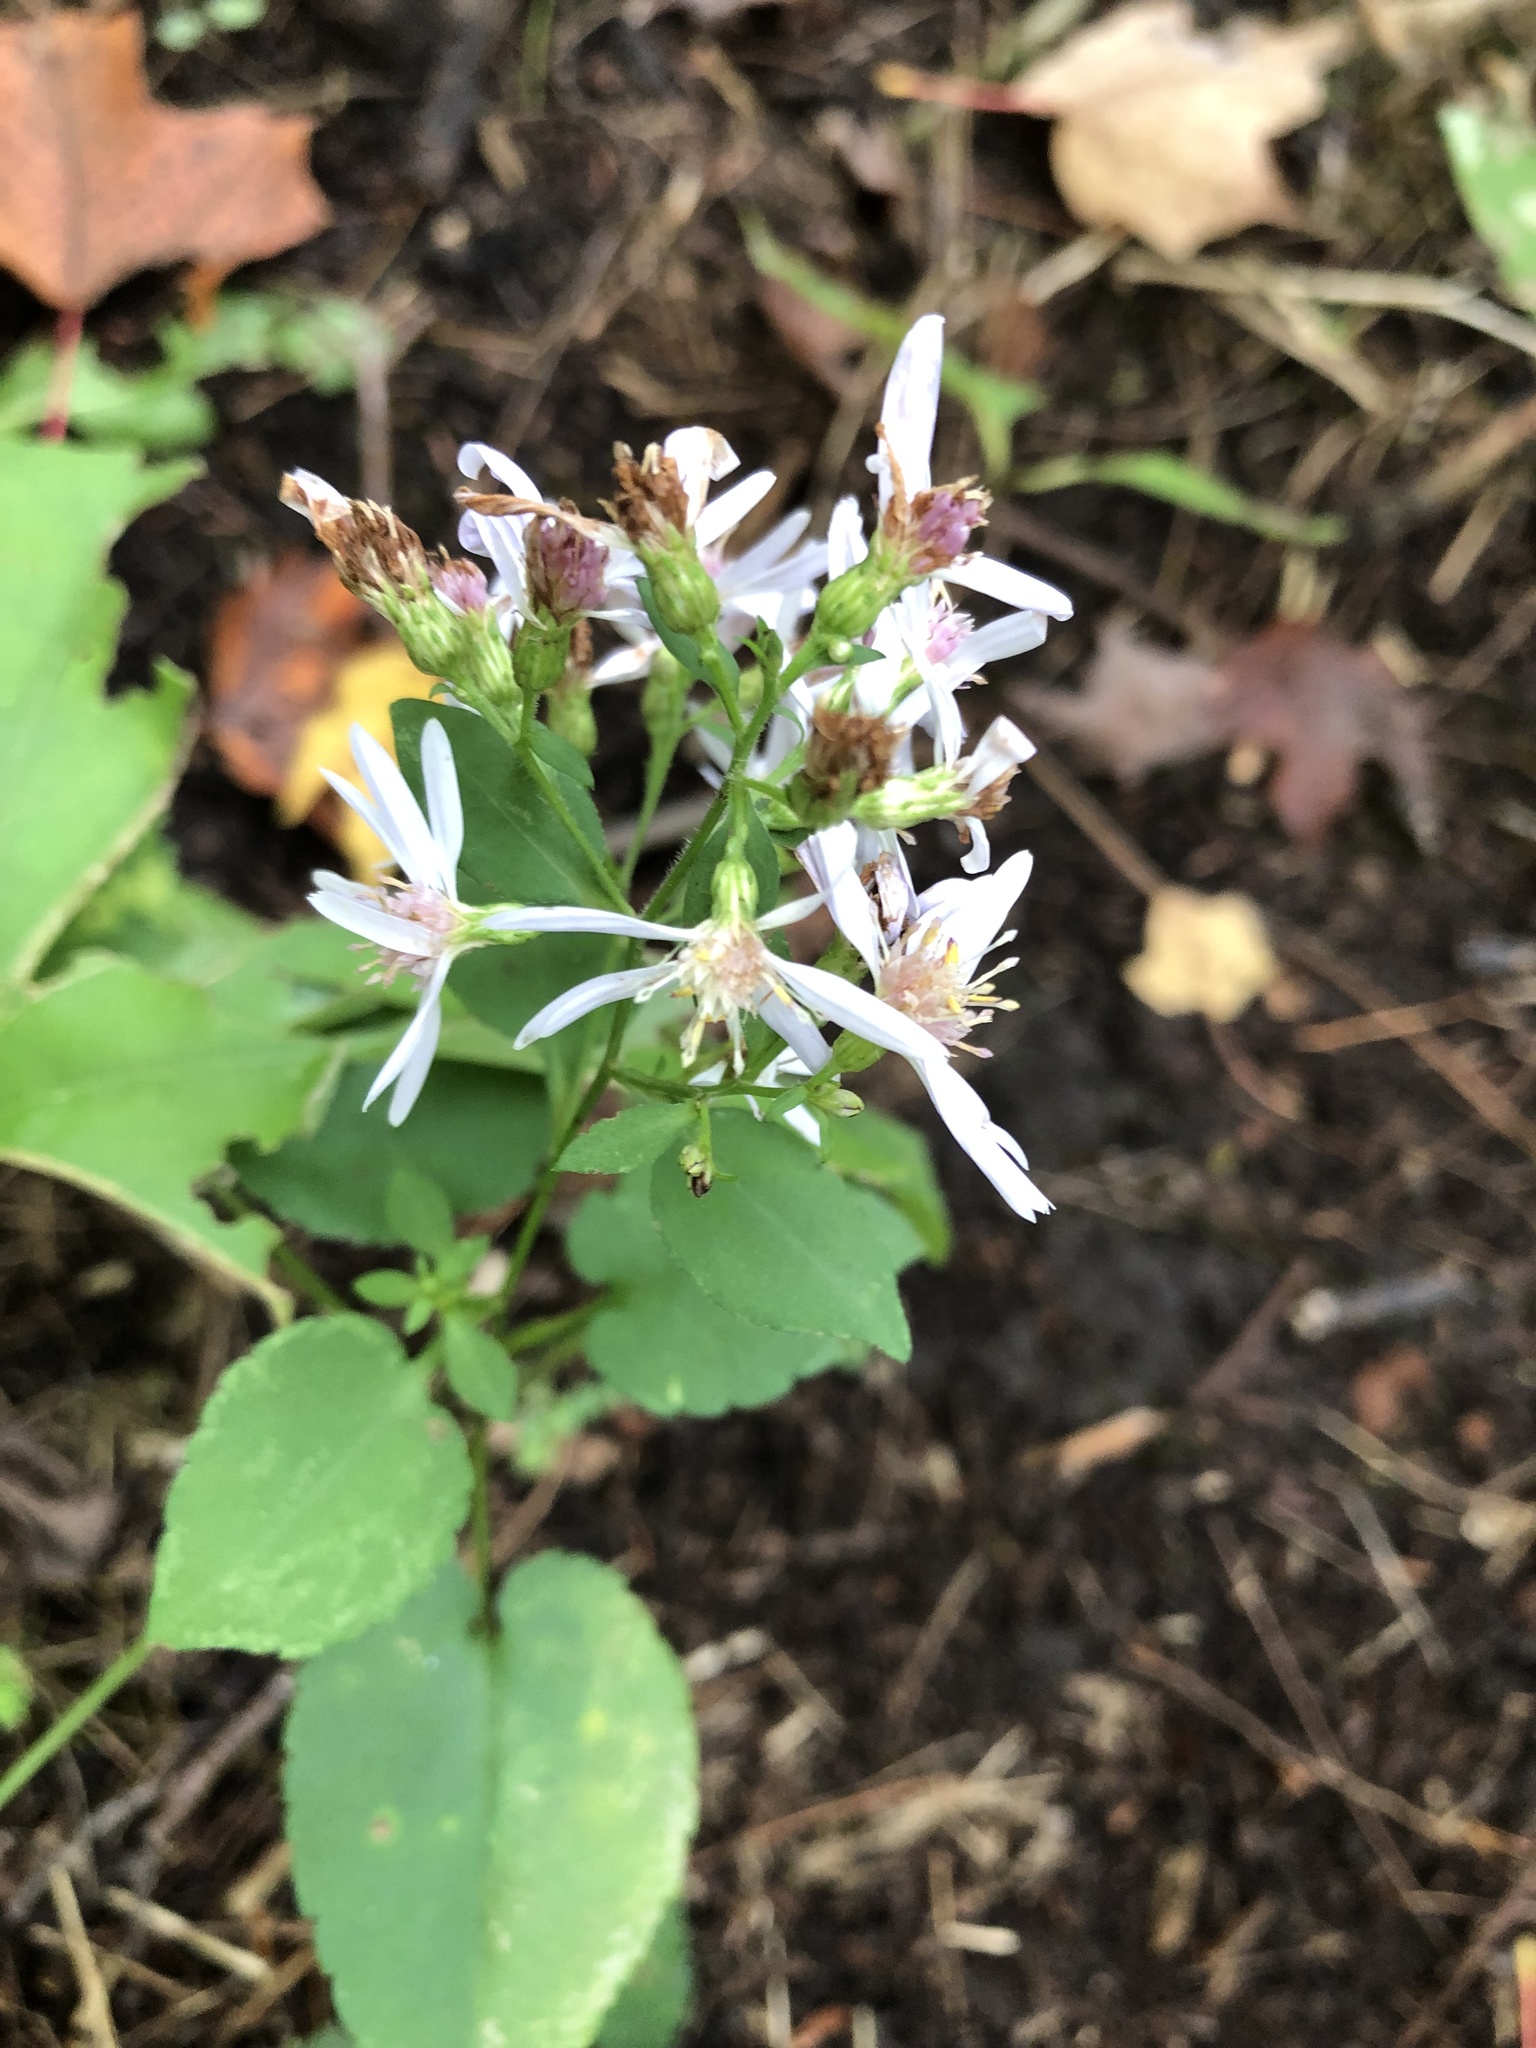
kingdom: Plantae
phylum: Tracheophyta
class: Magnoliopsida
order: Asterales
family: Asteraceae
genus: Symphyotrichum
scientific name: Symphyotrichum cordifolium
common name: Beeweed
